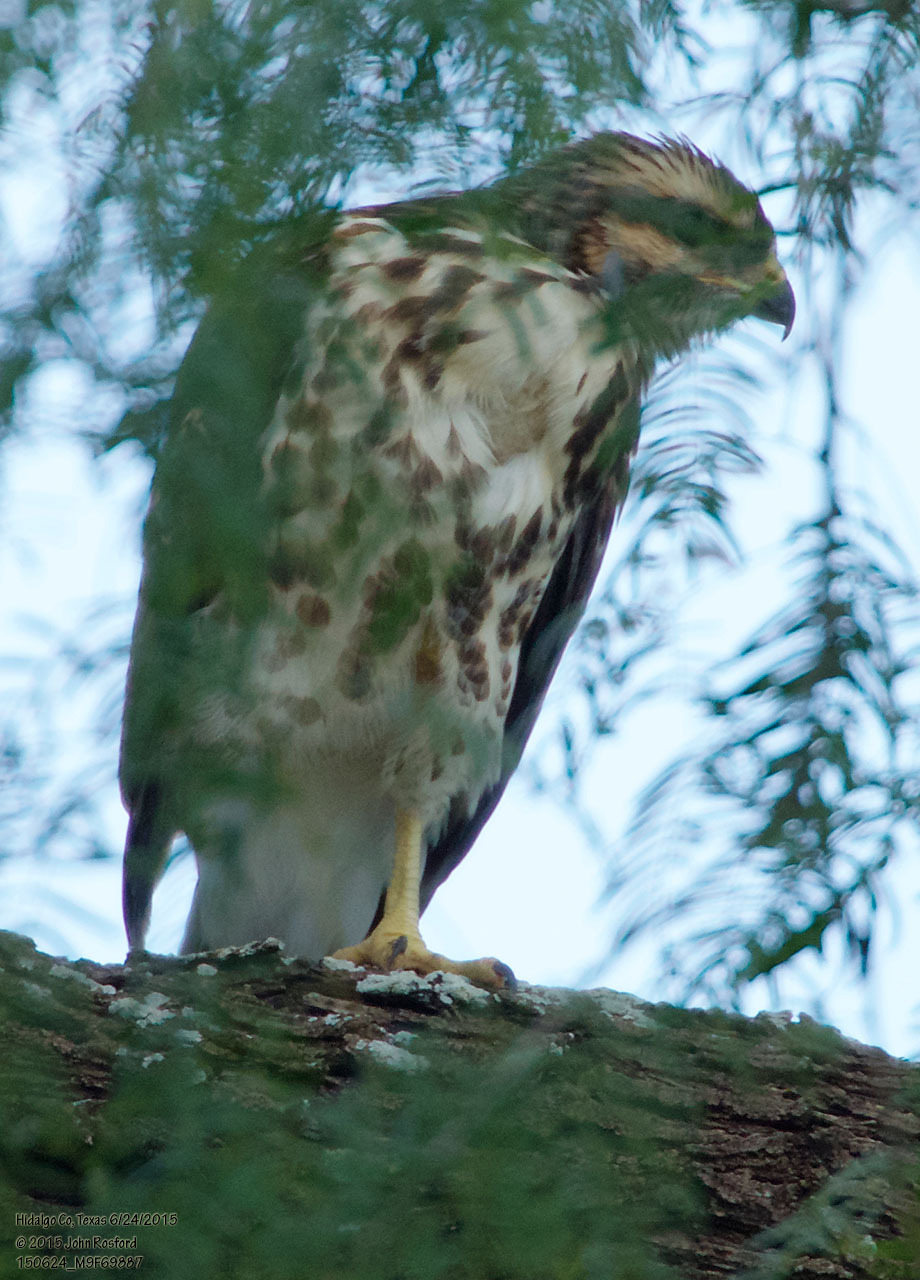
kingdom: Animalia
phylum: Chordata
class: Aves
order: Accipitriformes
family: Accipitridae
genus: Buteo
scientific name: Buteo nitidus
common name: Grey-lined hawk
